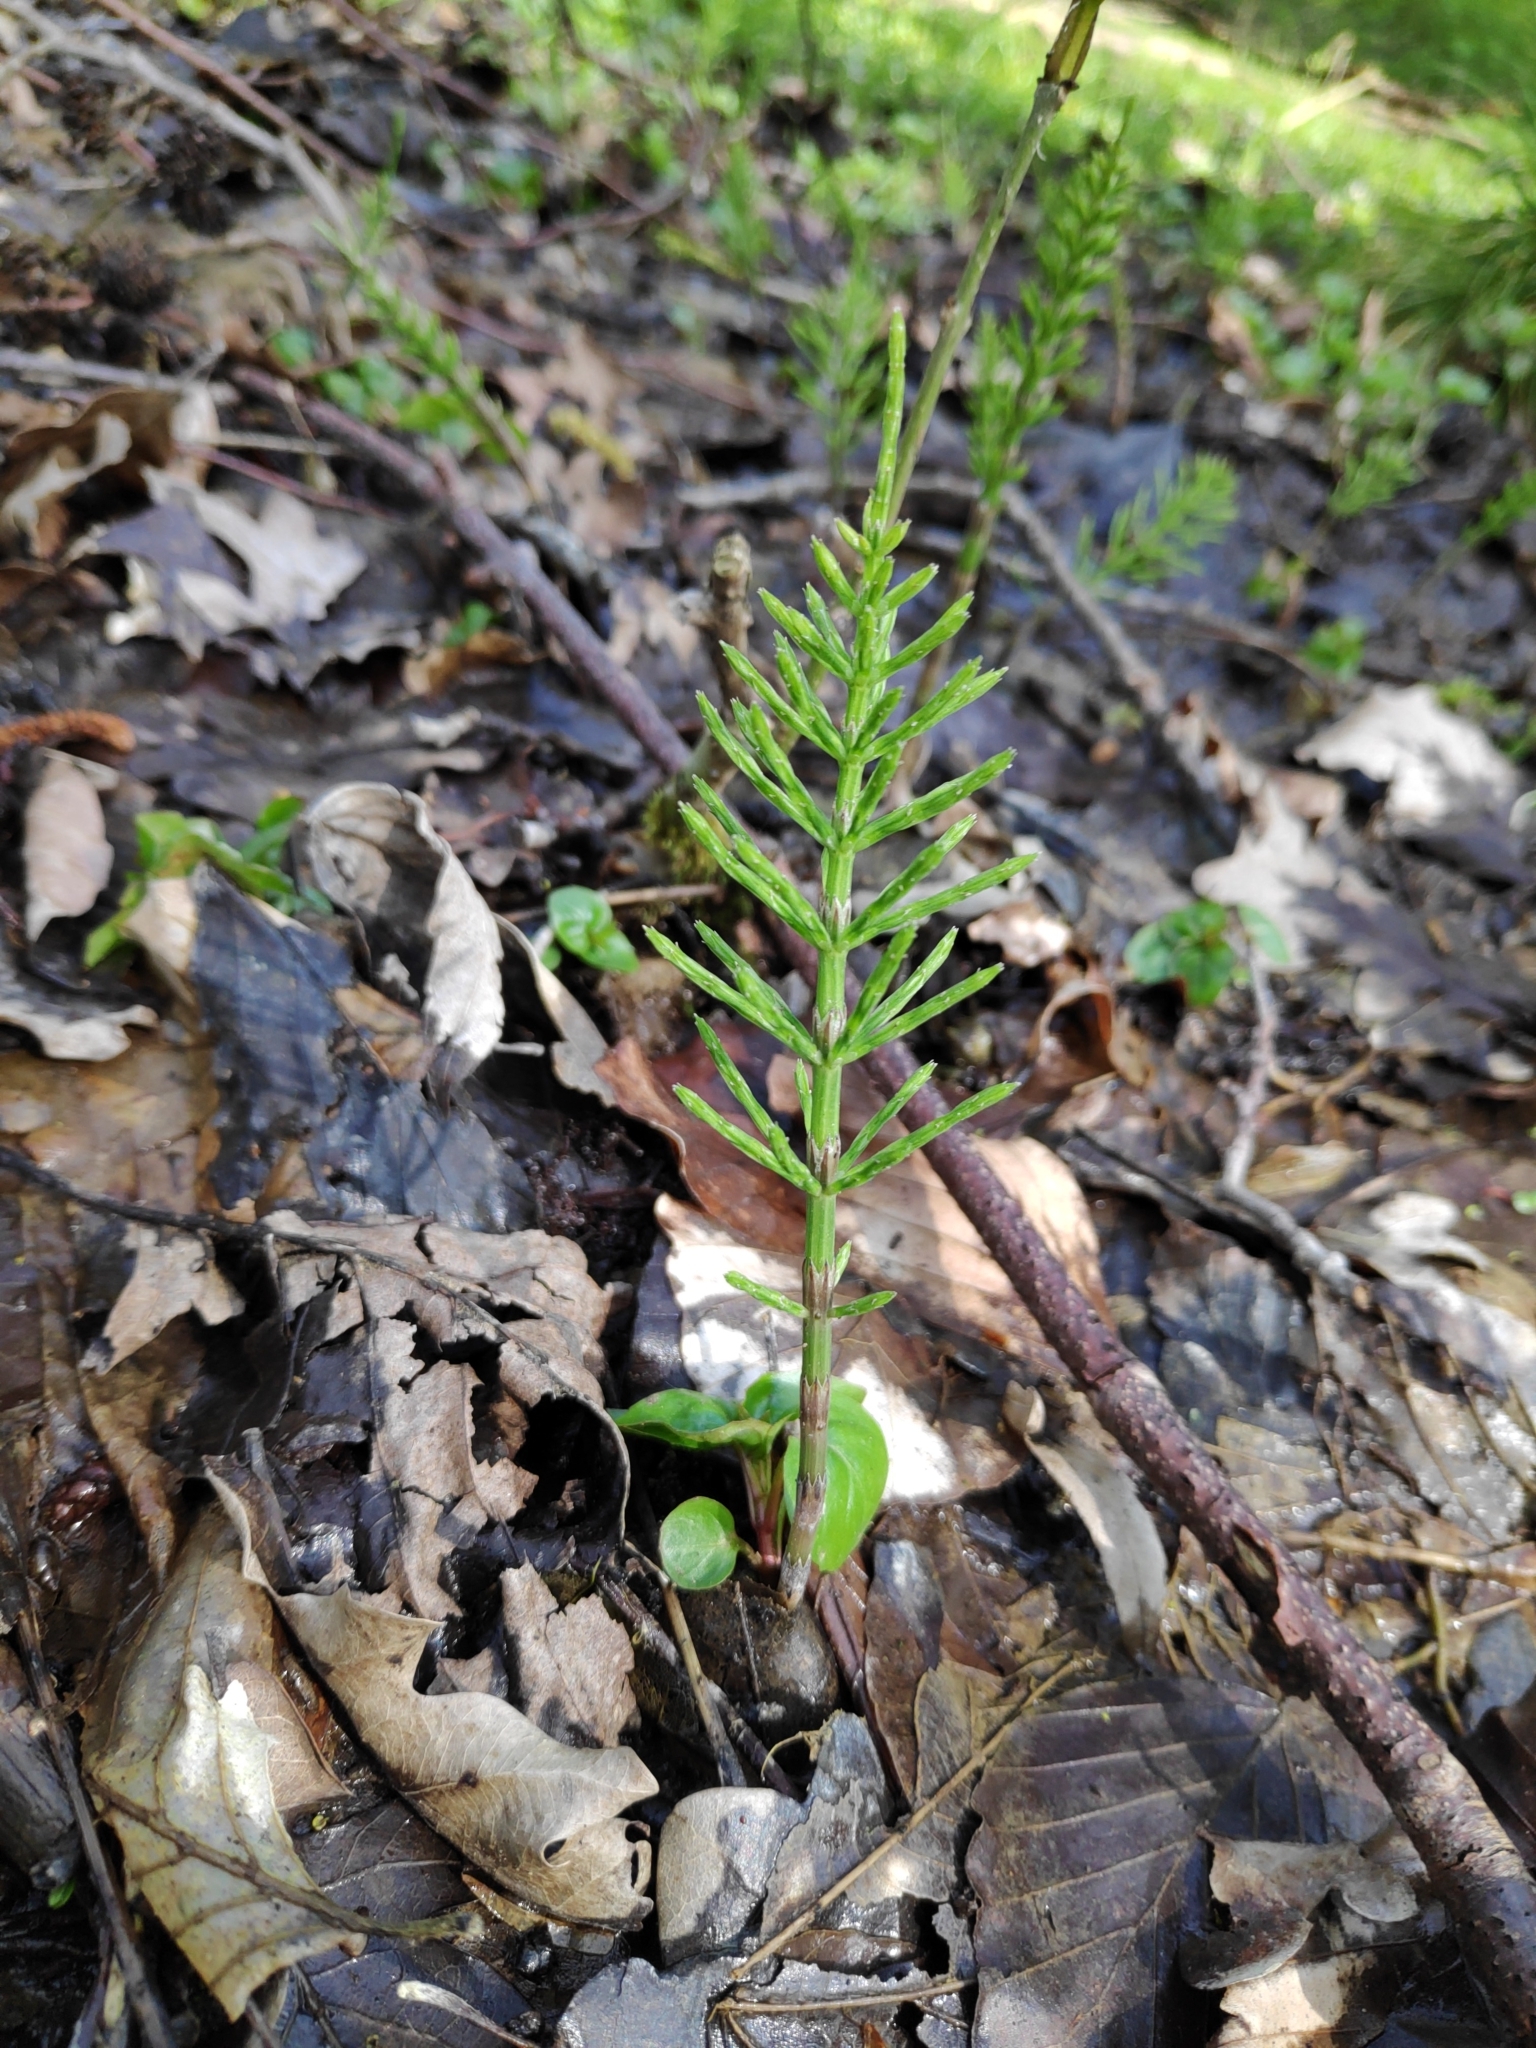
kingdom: Plantae
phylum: Tracheophyta
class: Polypodiopsida
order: Equisetales
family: Equisetaceae
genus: Equisetum
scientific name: Equisetum arvense
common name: Field horsetail
